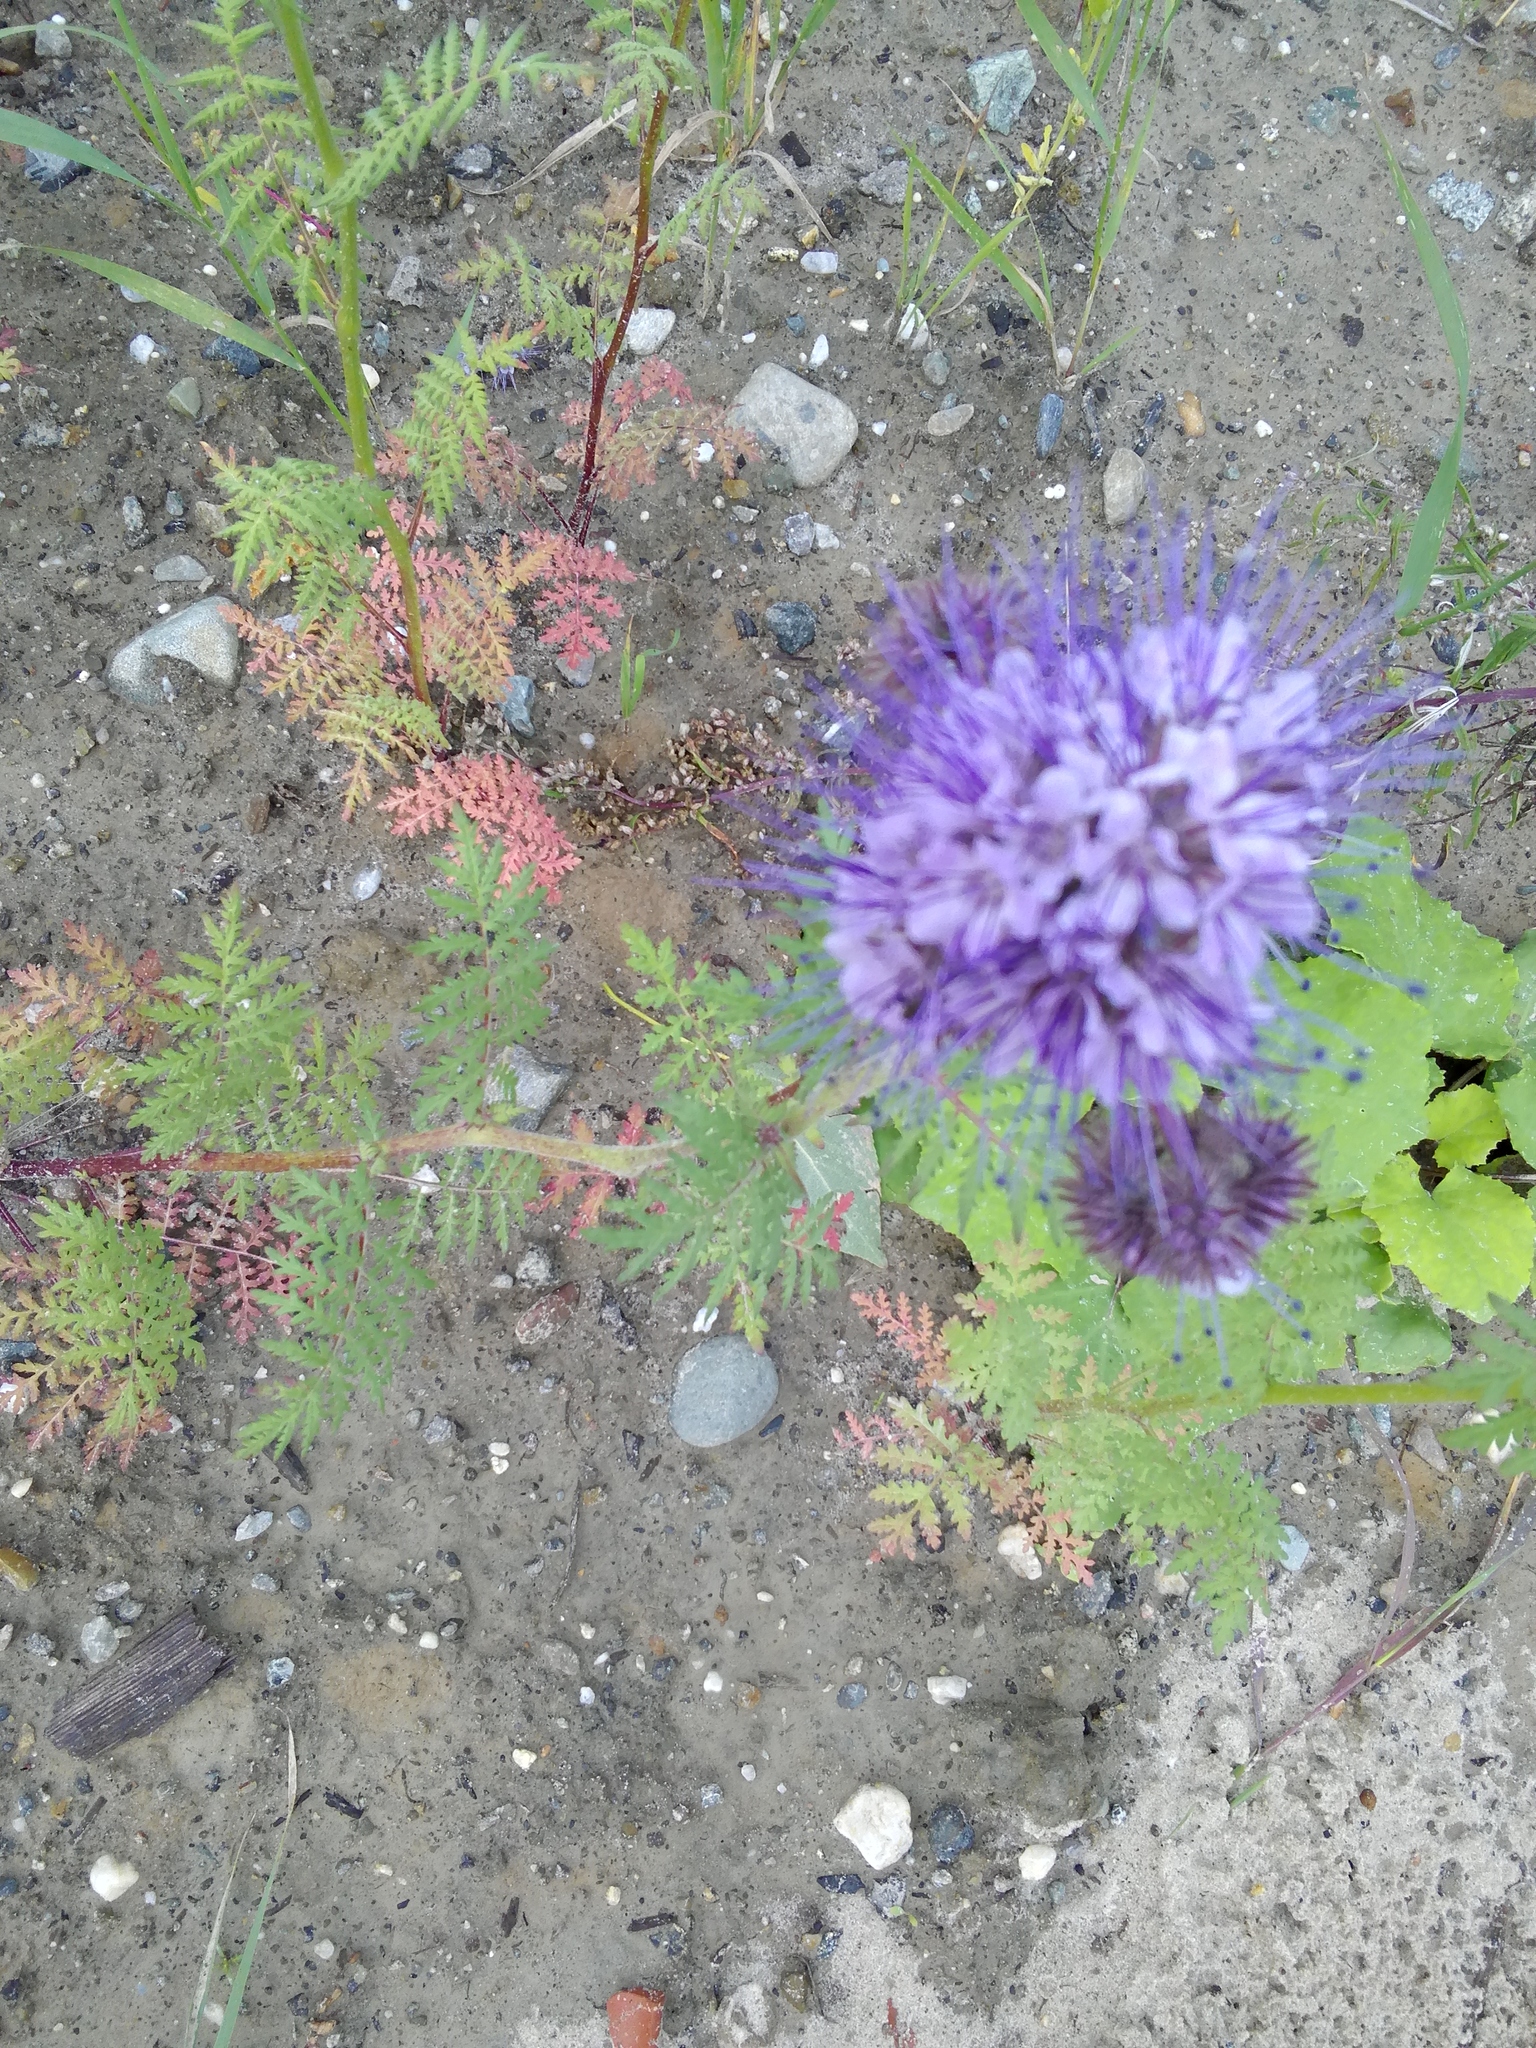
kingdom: Plantae
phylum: Tracheophyta
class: Magnoliopsida
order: Boraginales
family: Hydrophyllaceae
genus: Phacelia
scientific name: Phacelia tanacetifolia
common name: Phacelia
